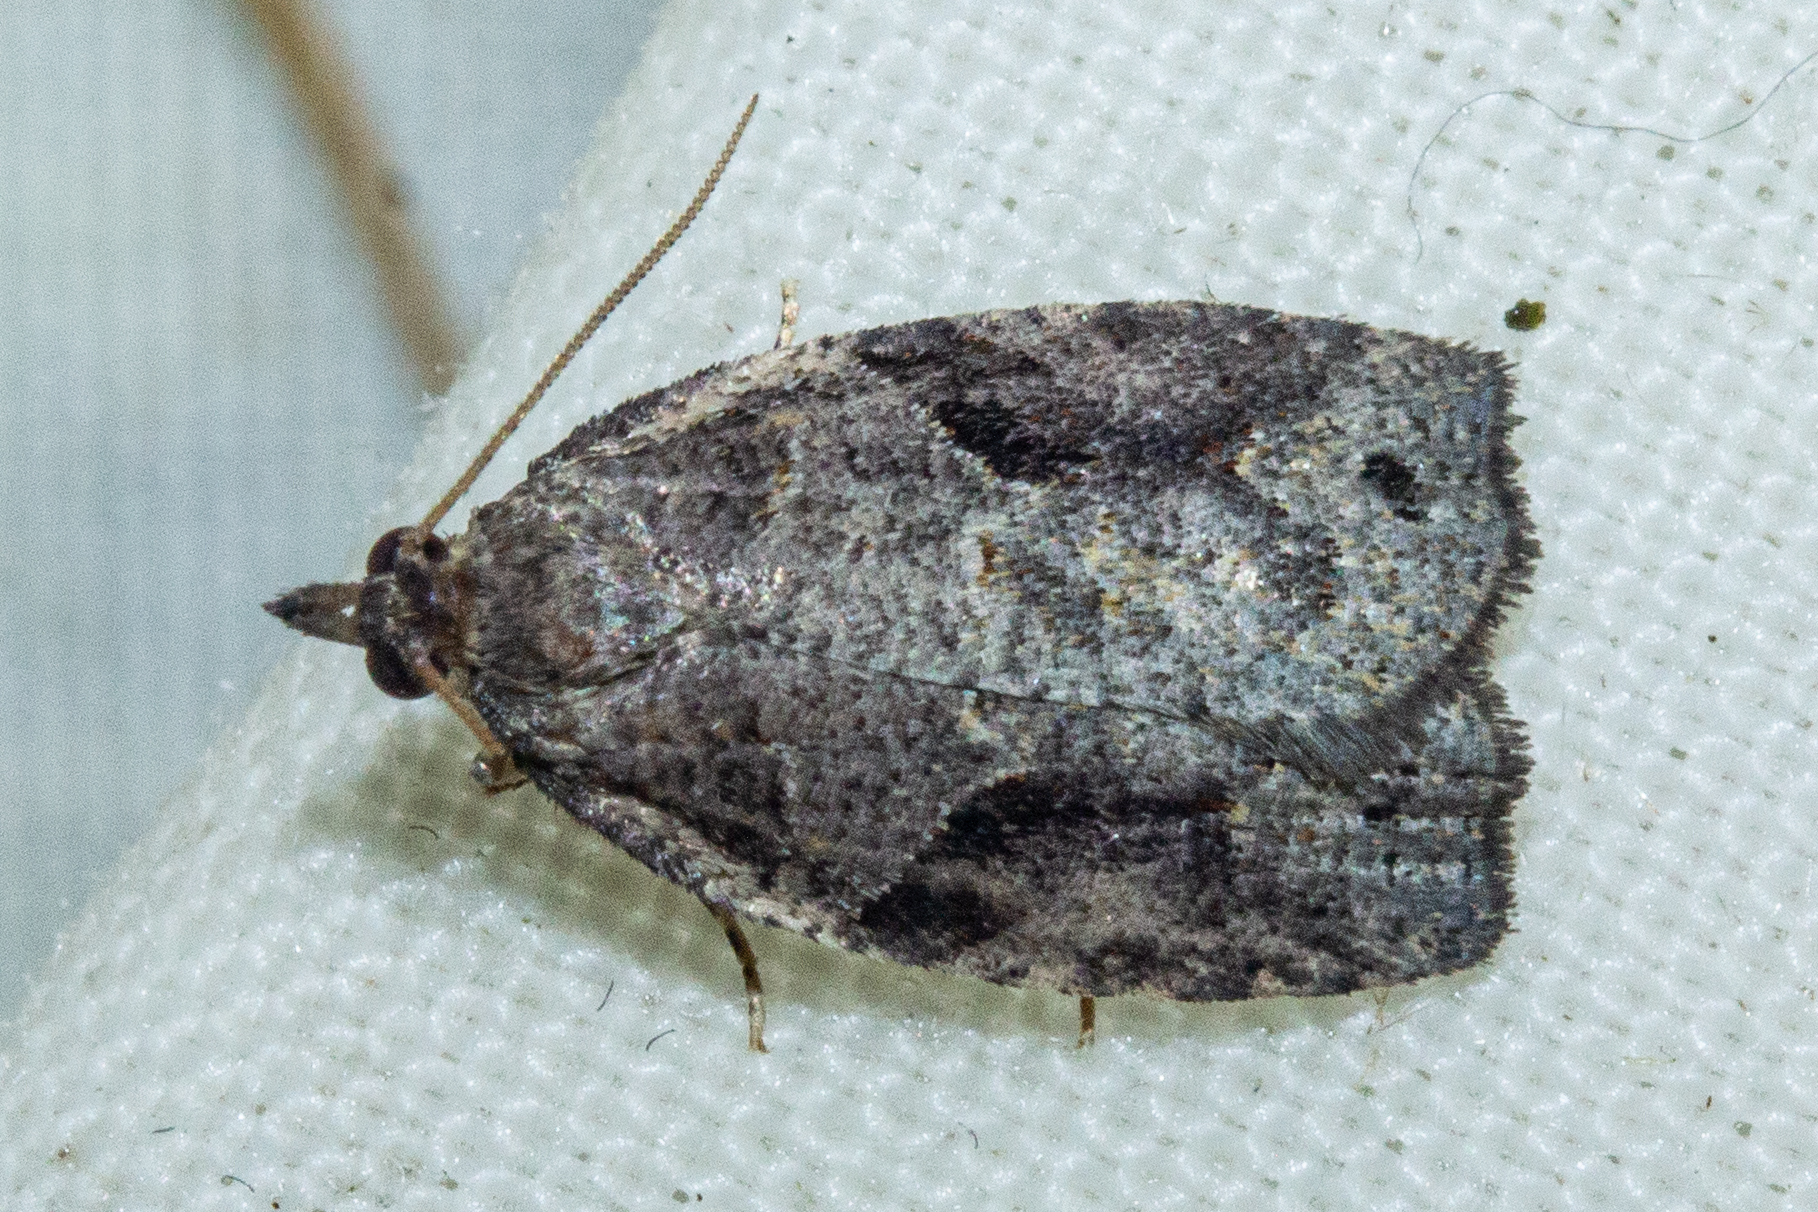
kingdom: Animalia
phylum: Arthropoda
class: Insecta
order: Lepidoptera
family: Tortricidae
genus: Apoctena
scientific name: Apoctena orthropis
